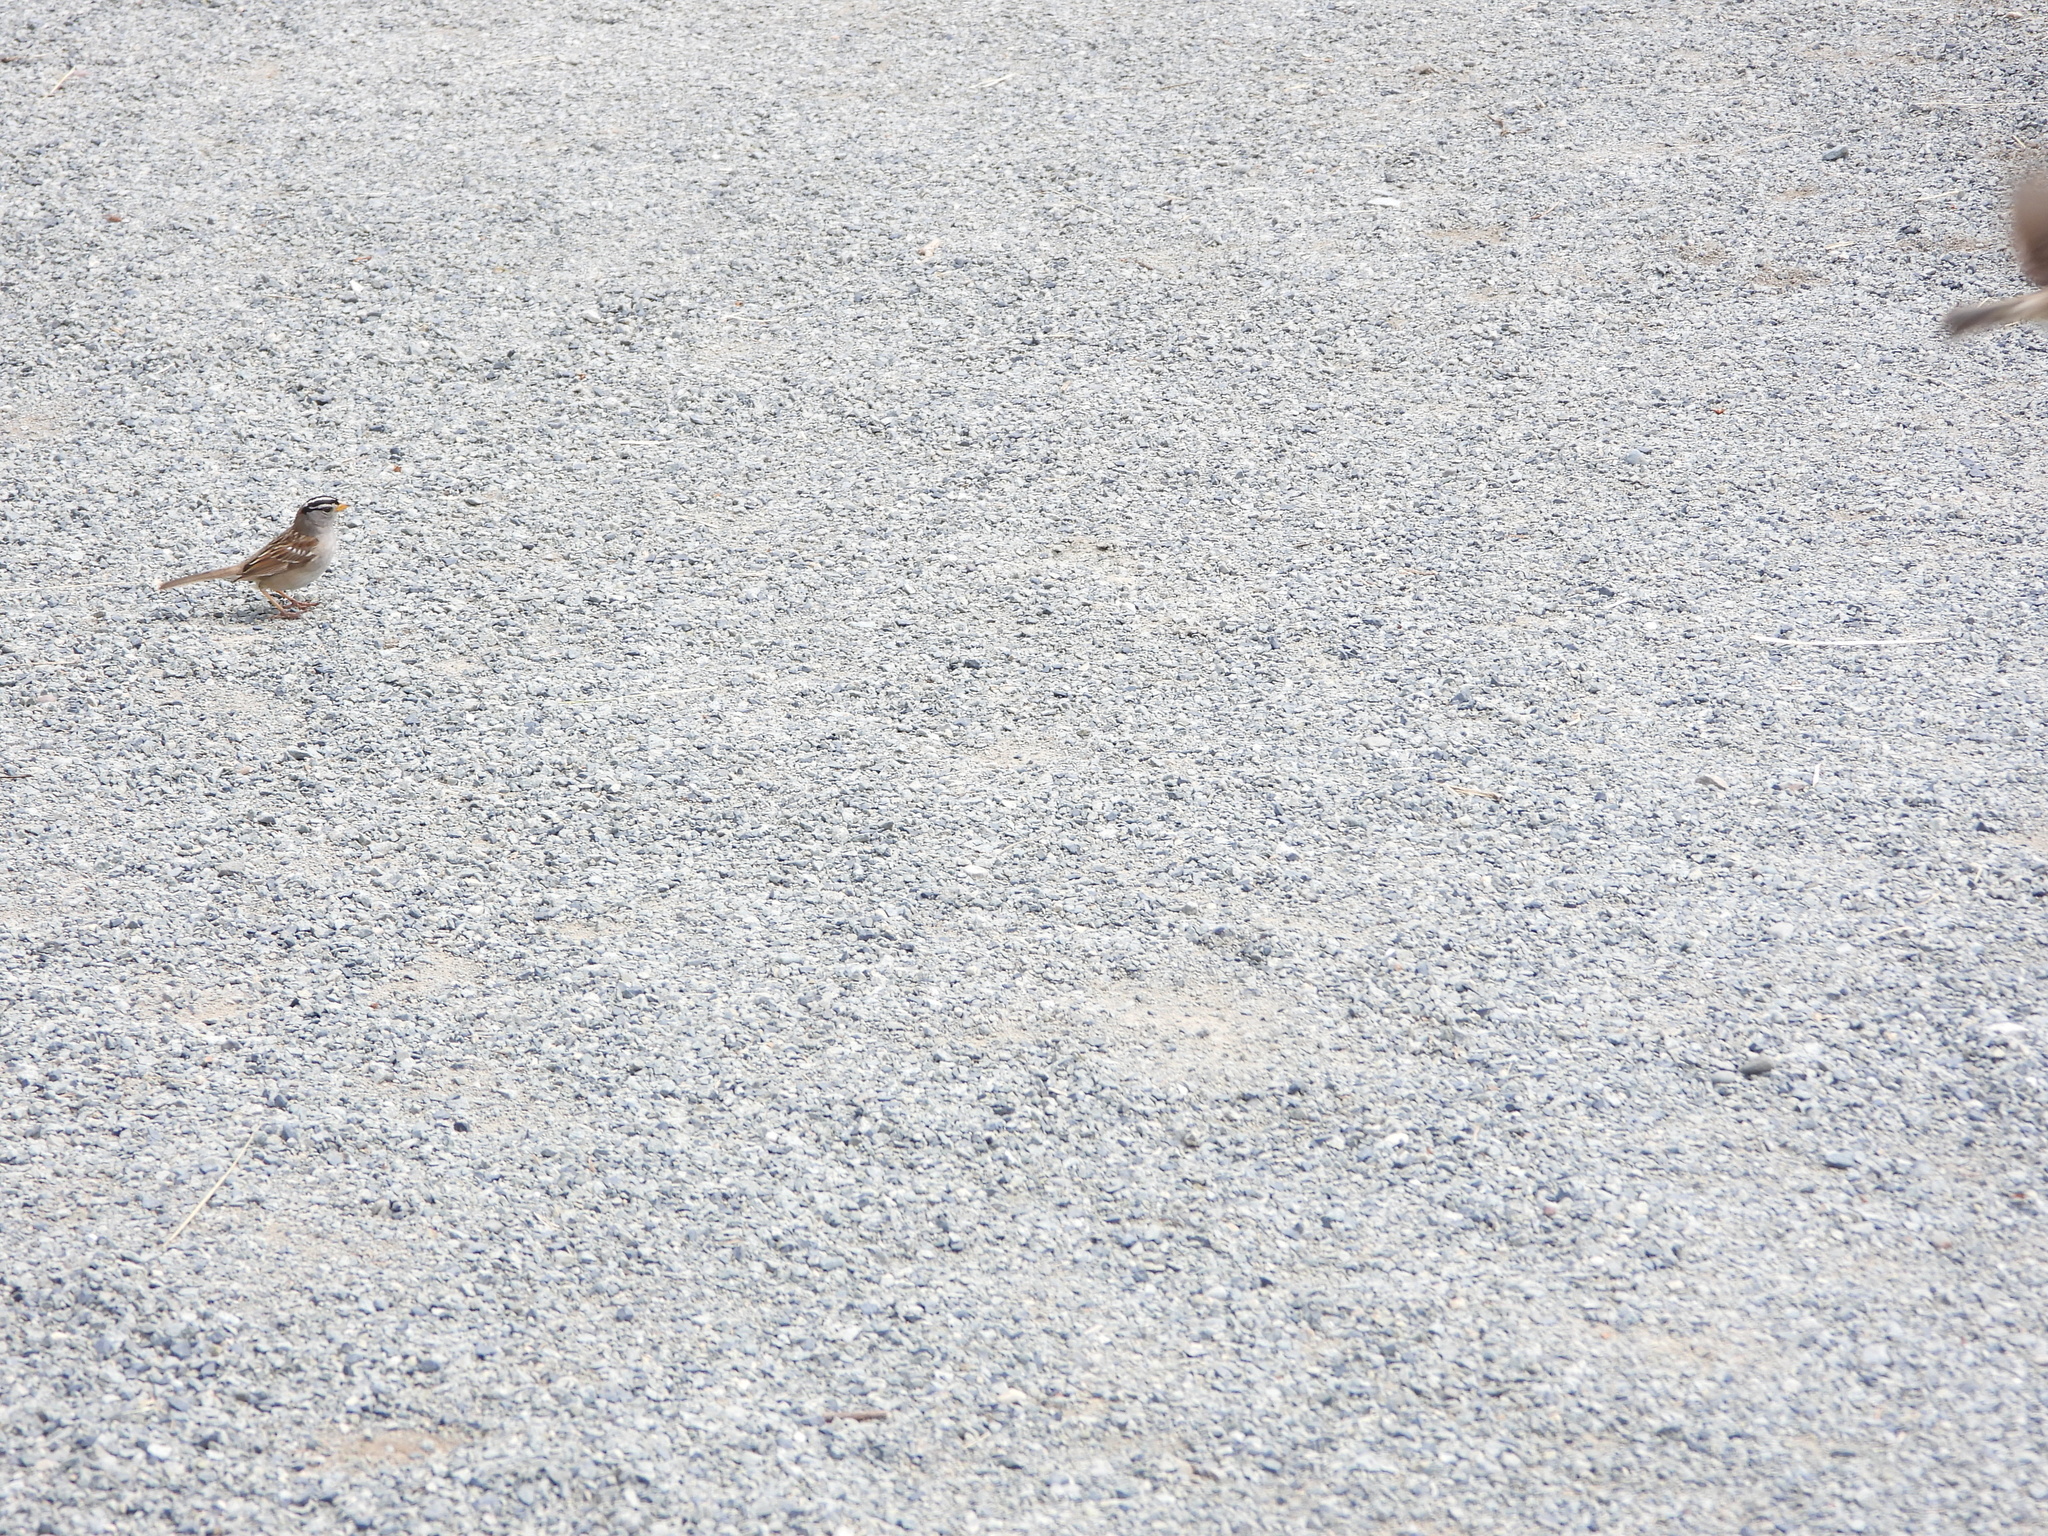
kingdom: Animalia
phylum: Chordata
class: Aves
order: Passeriformes
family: Passerellidae
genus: Zonotrichia
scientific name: Zonotrichia leucophrys
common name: White-crowned sparrow
